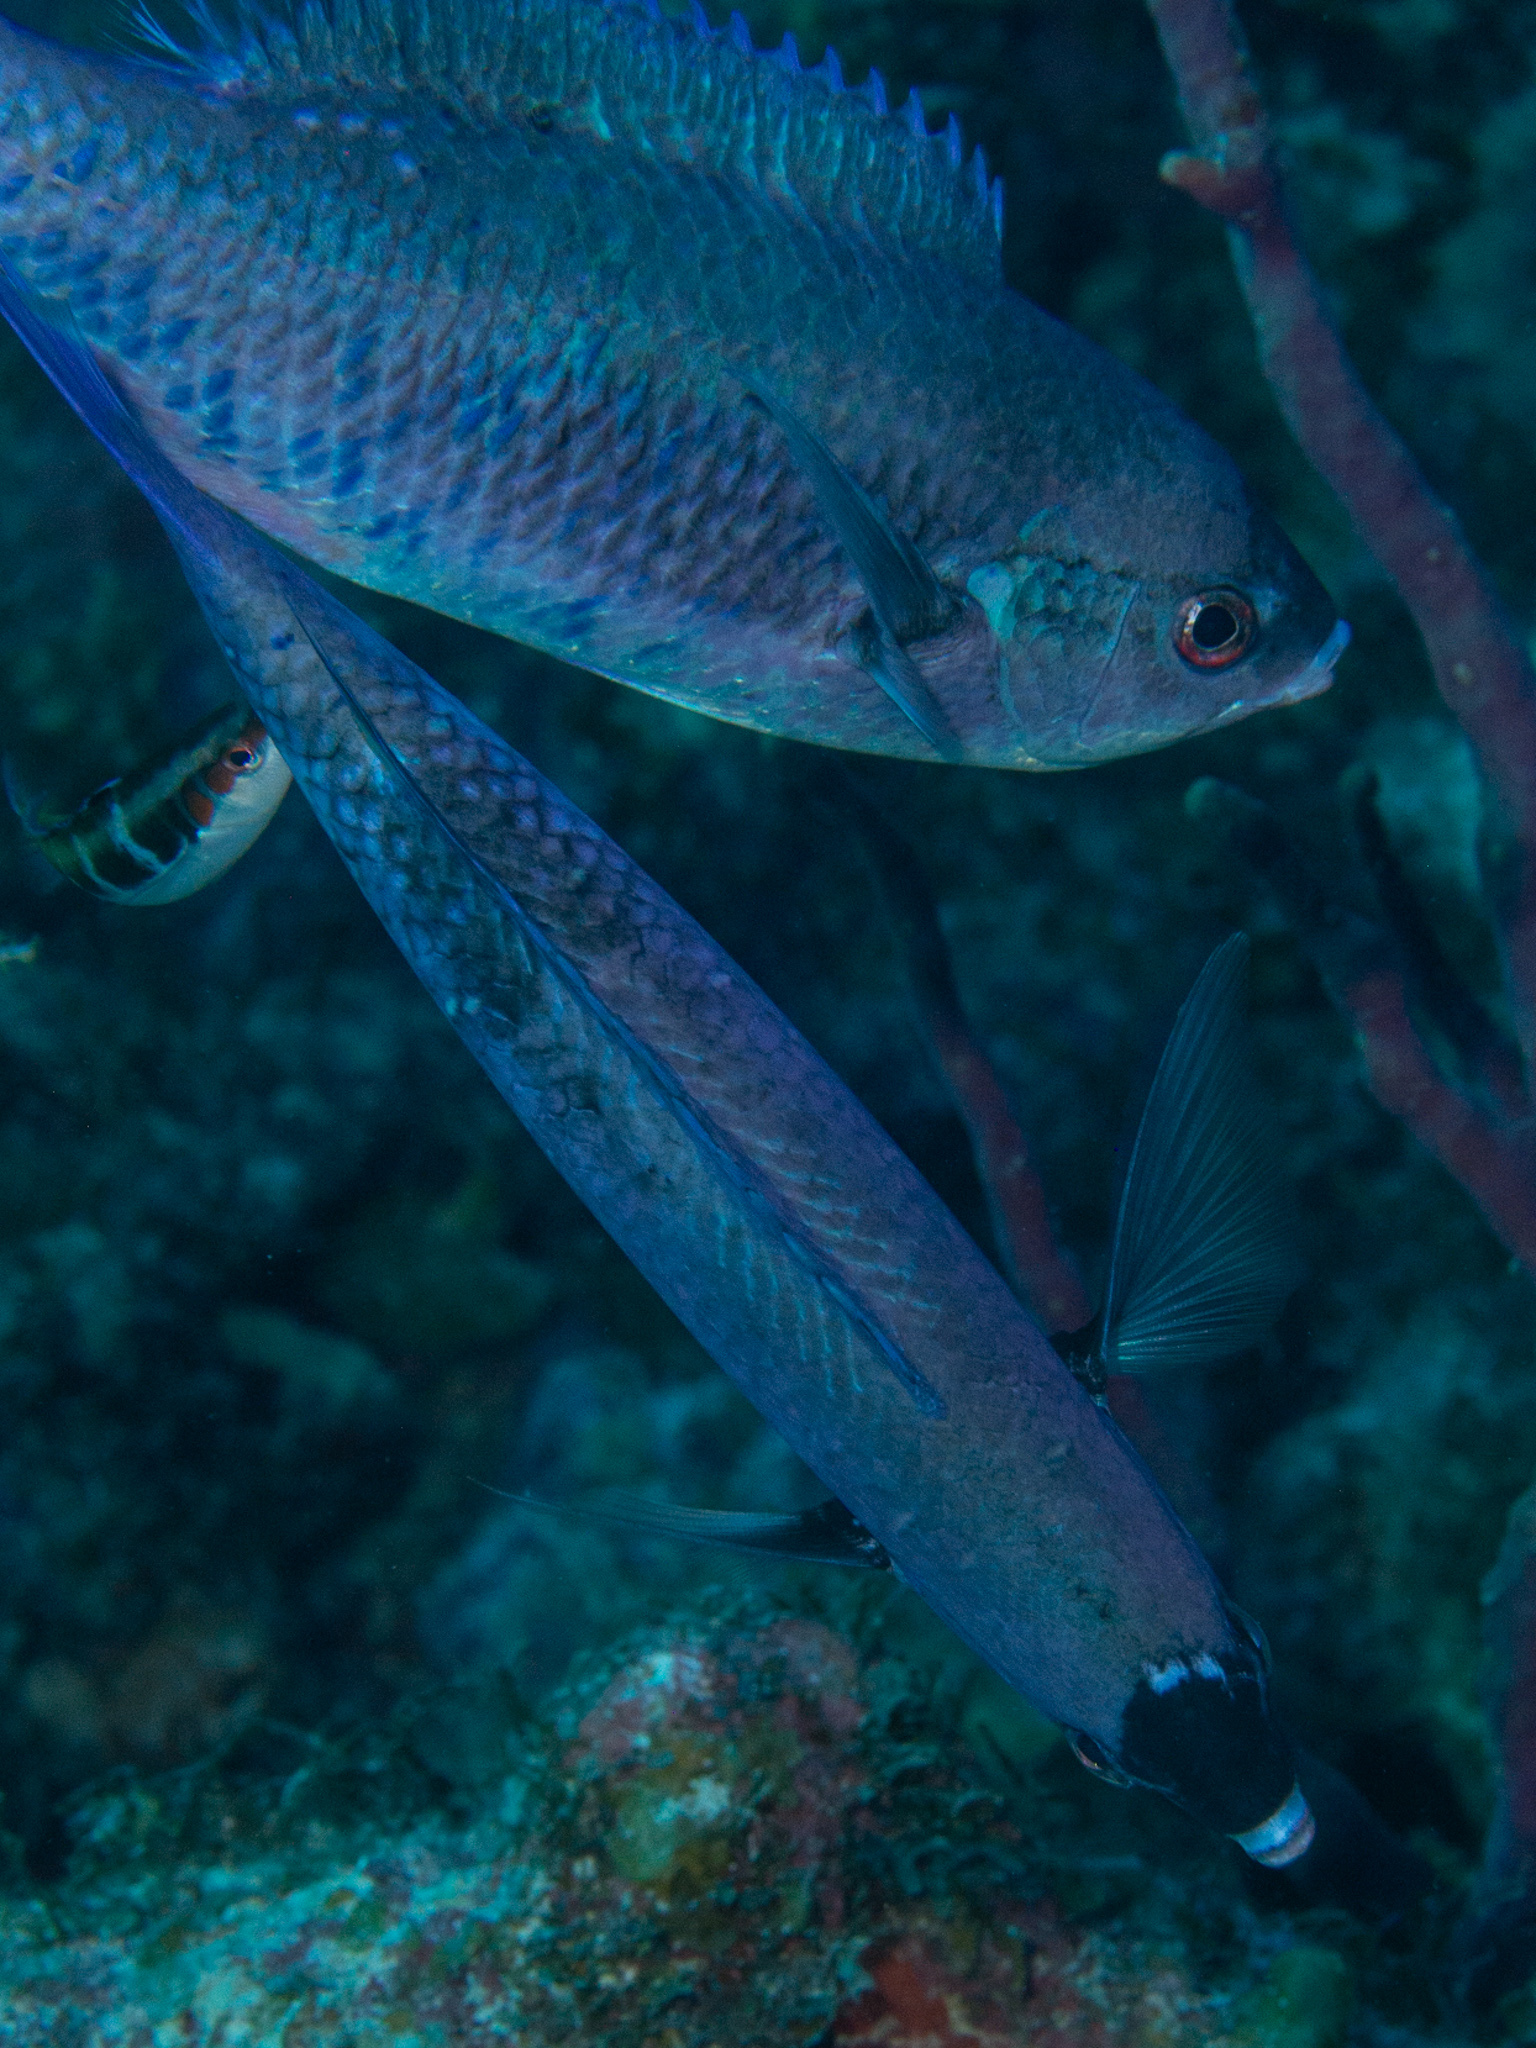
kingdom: Animalia
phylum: Chordata
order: Perciformes
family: Labridae
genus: Bodianus
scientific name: Bodianus
